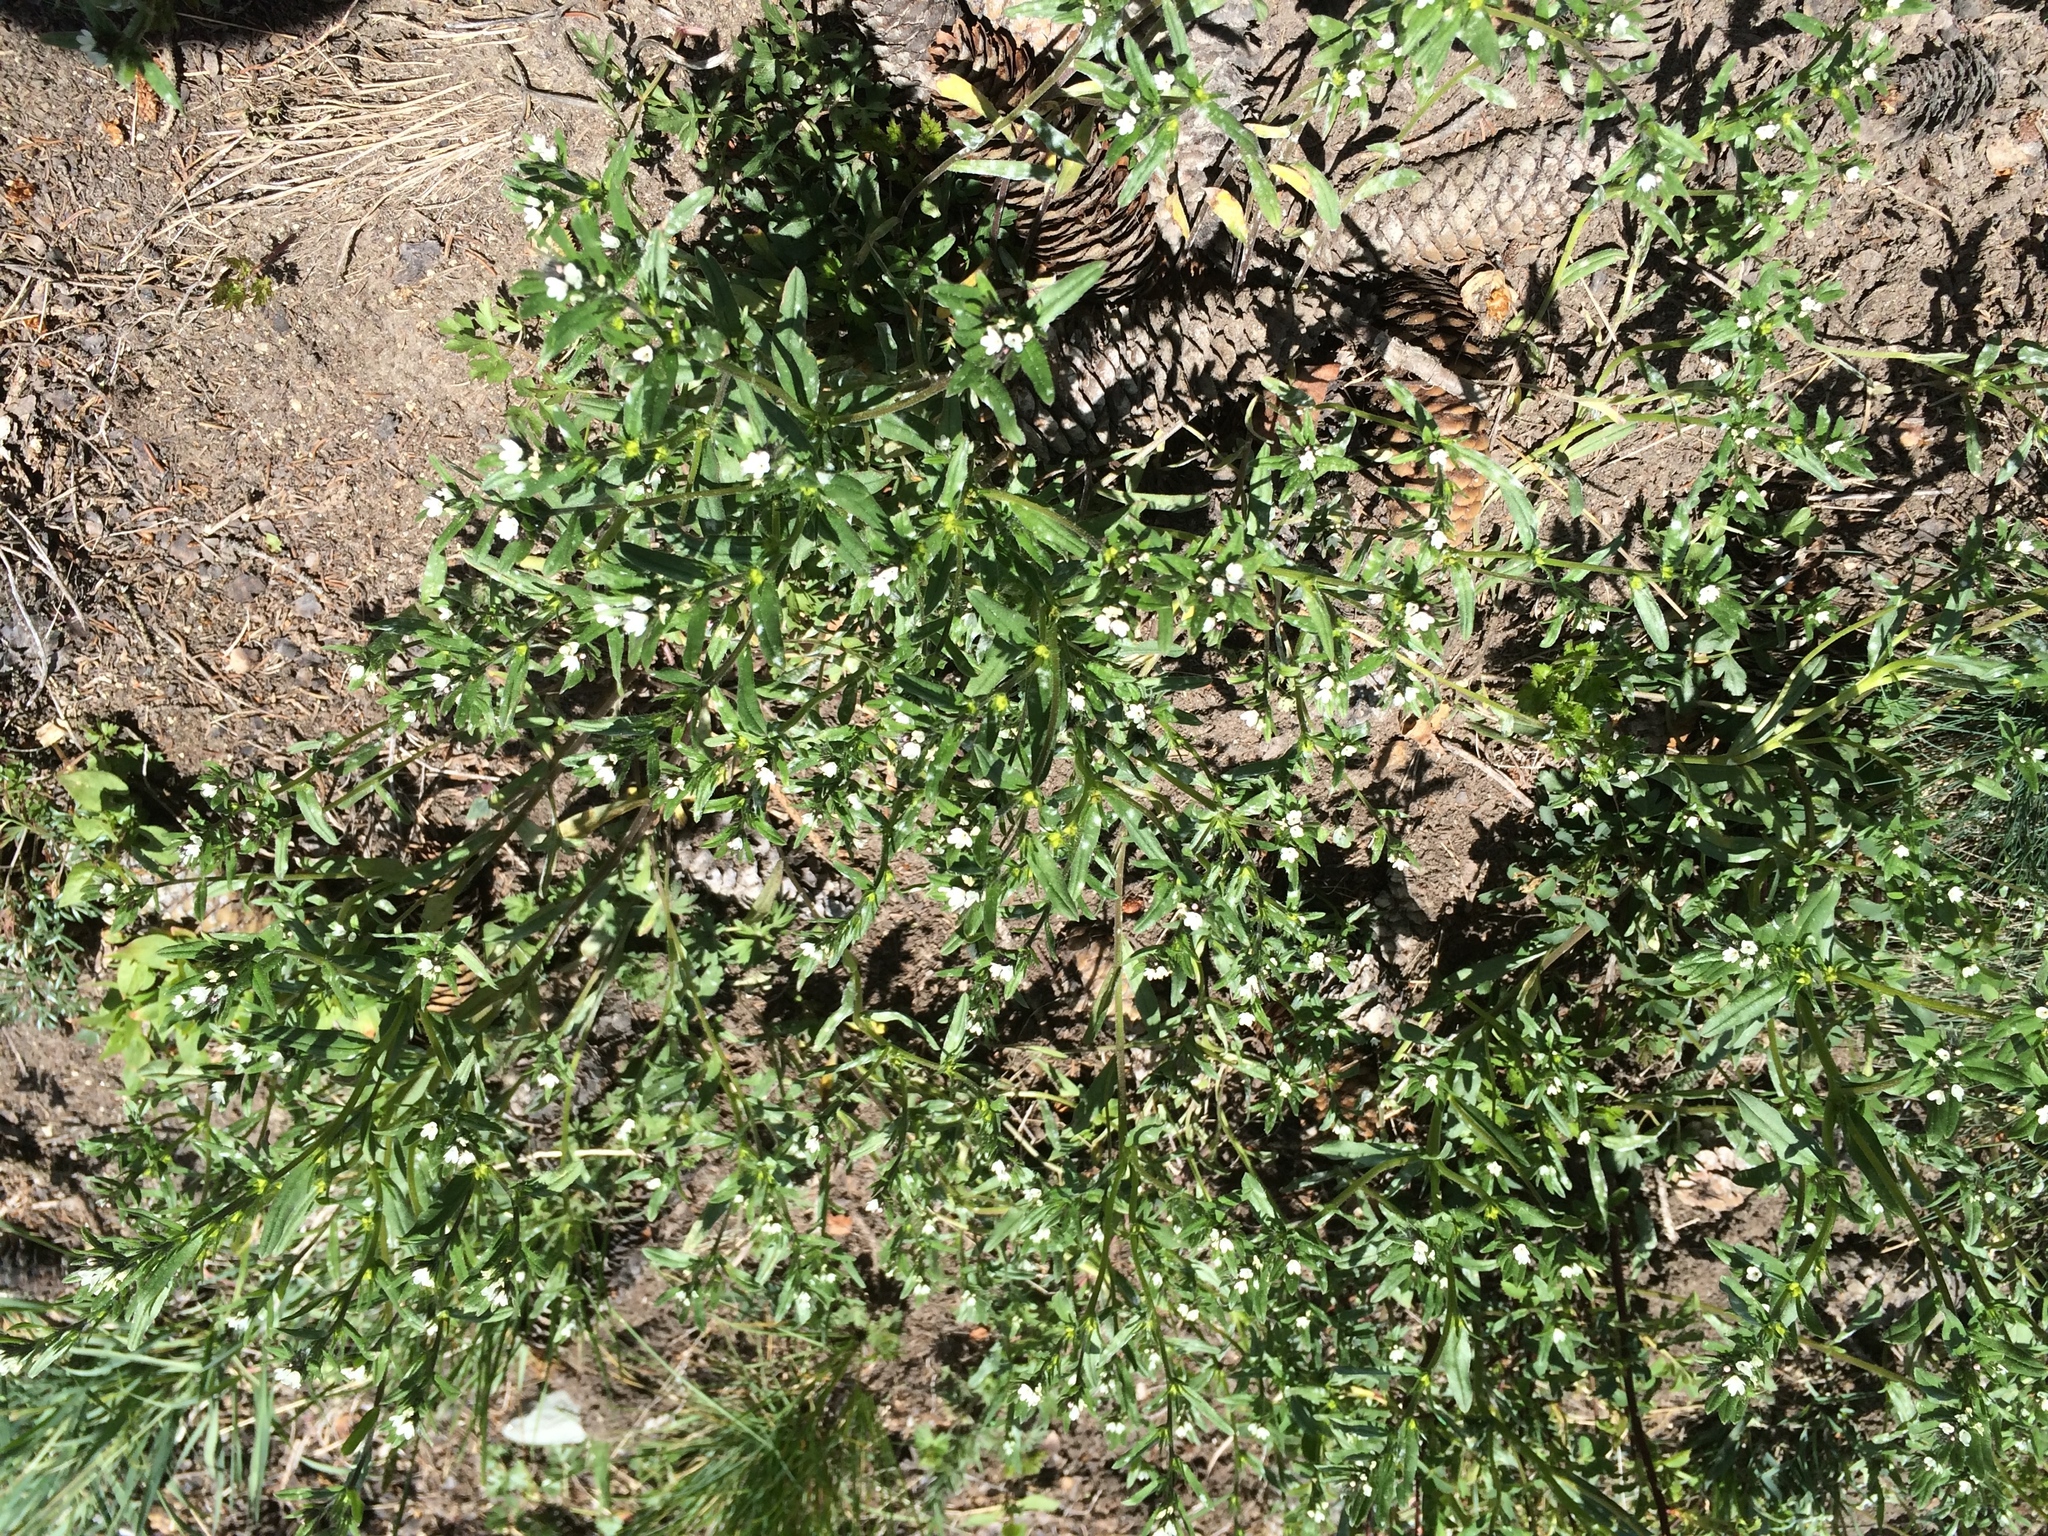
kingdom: Plantae
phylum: Tracheophyta
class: Magnoliopsida
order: Boraginales
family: Boraginaceae
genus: Buglossoides
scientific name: Buglossoides arvensis
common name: Corn gromwell
